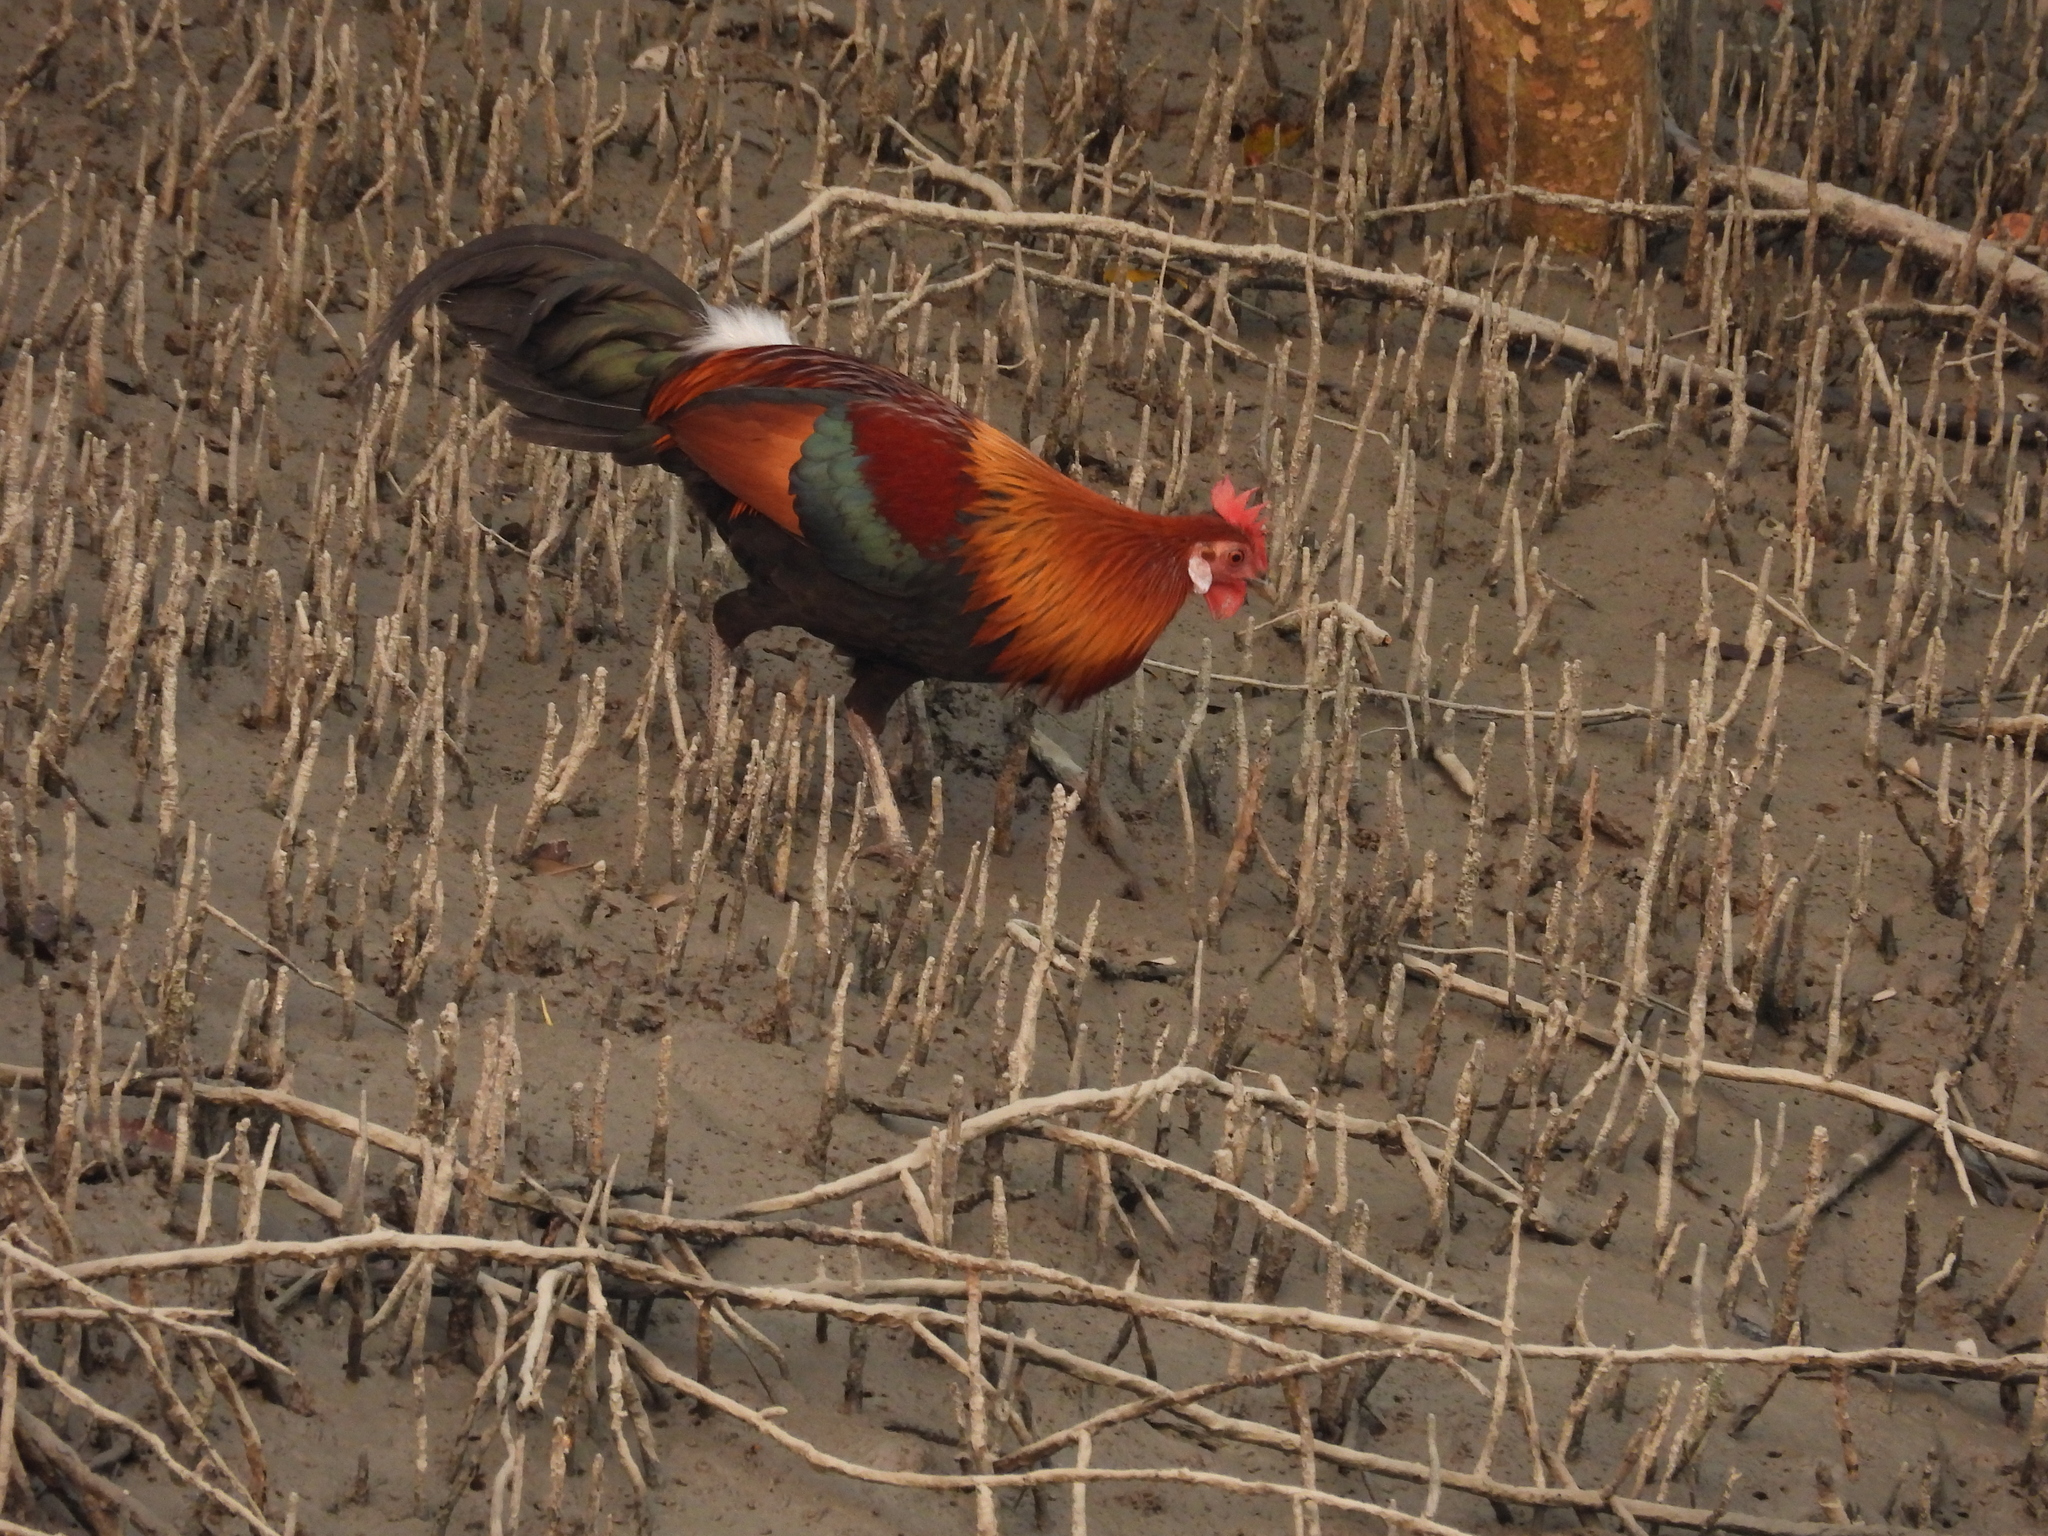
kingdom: Animalia
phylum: Chordata
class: Aves
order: Galliformes
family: Phasianidae
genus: Gallus
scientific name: Gallus gallus
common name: Red junglefowl
